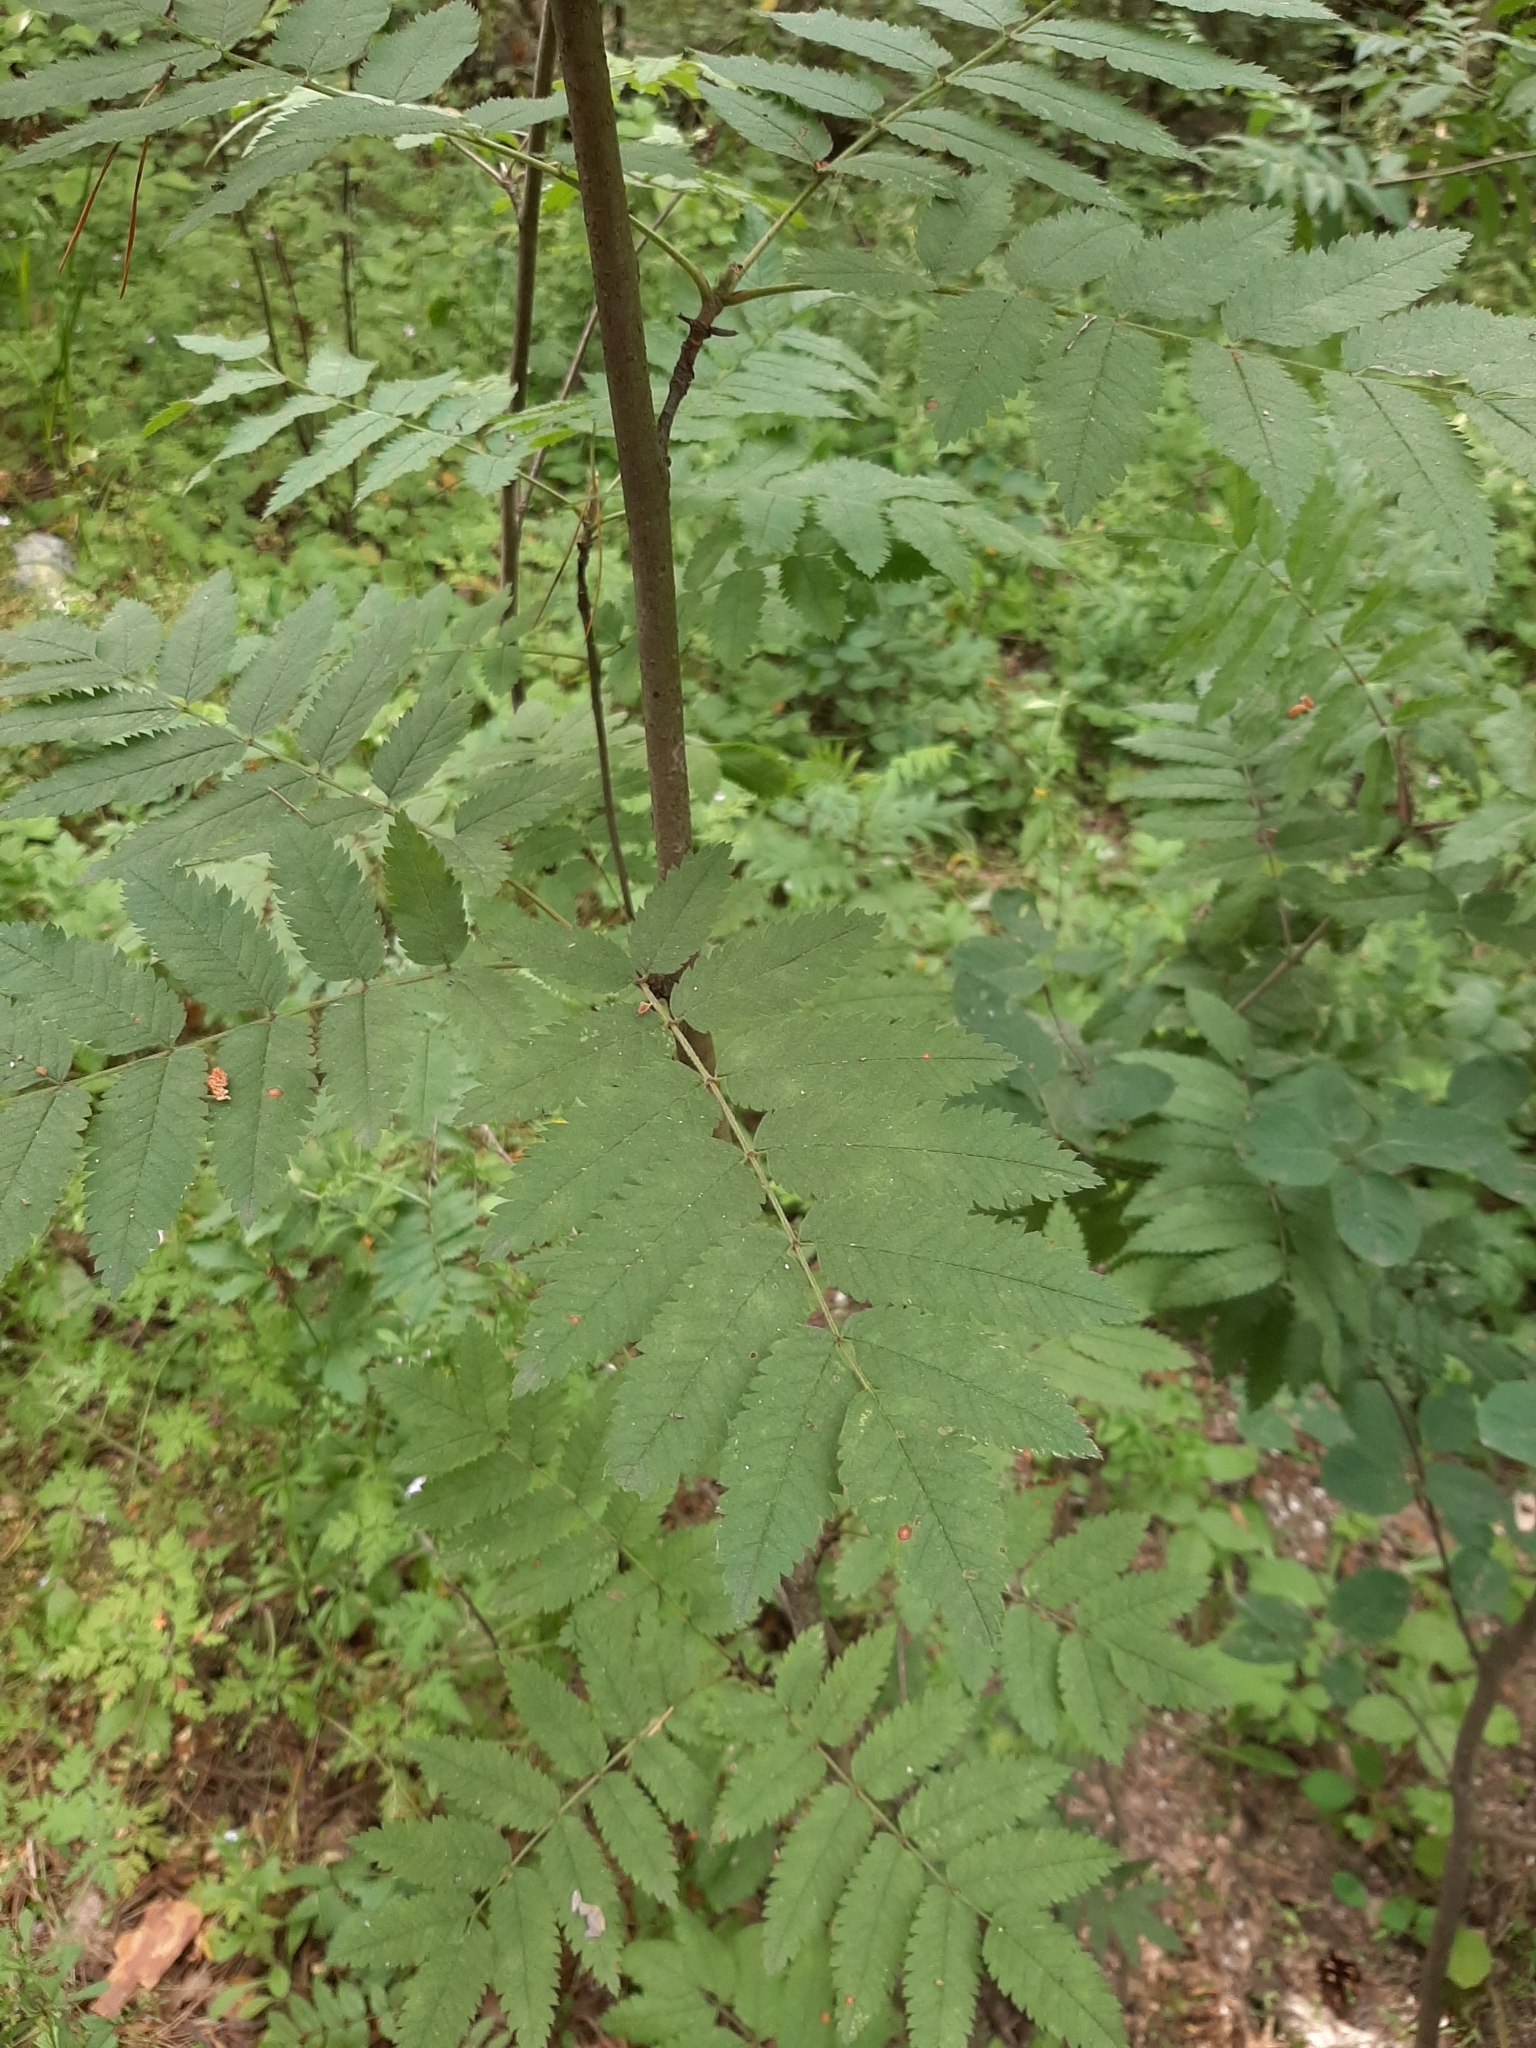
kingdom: Plantae
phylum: Tracheophyta
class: Magnoliopsida
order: Rosales
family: Rosaceae
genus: Sorbus
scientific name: Sorbus aucuparia
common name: Rowan
